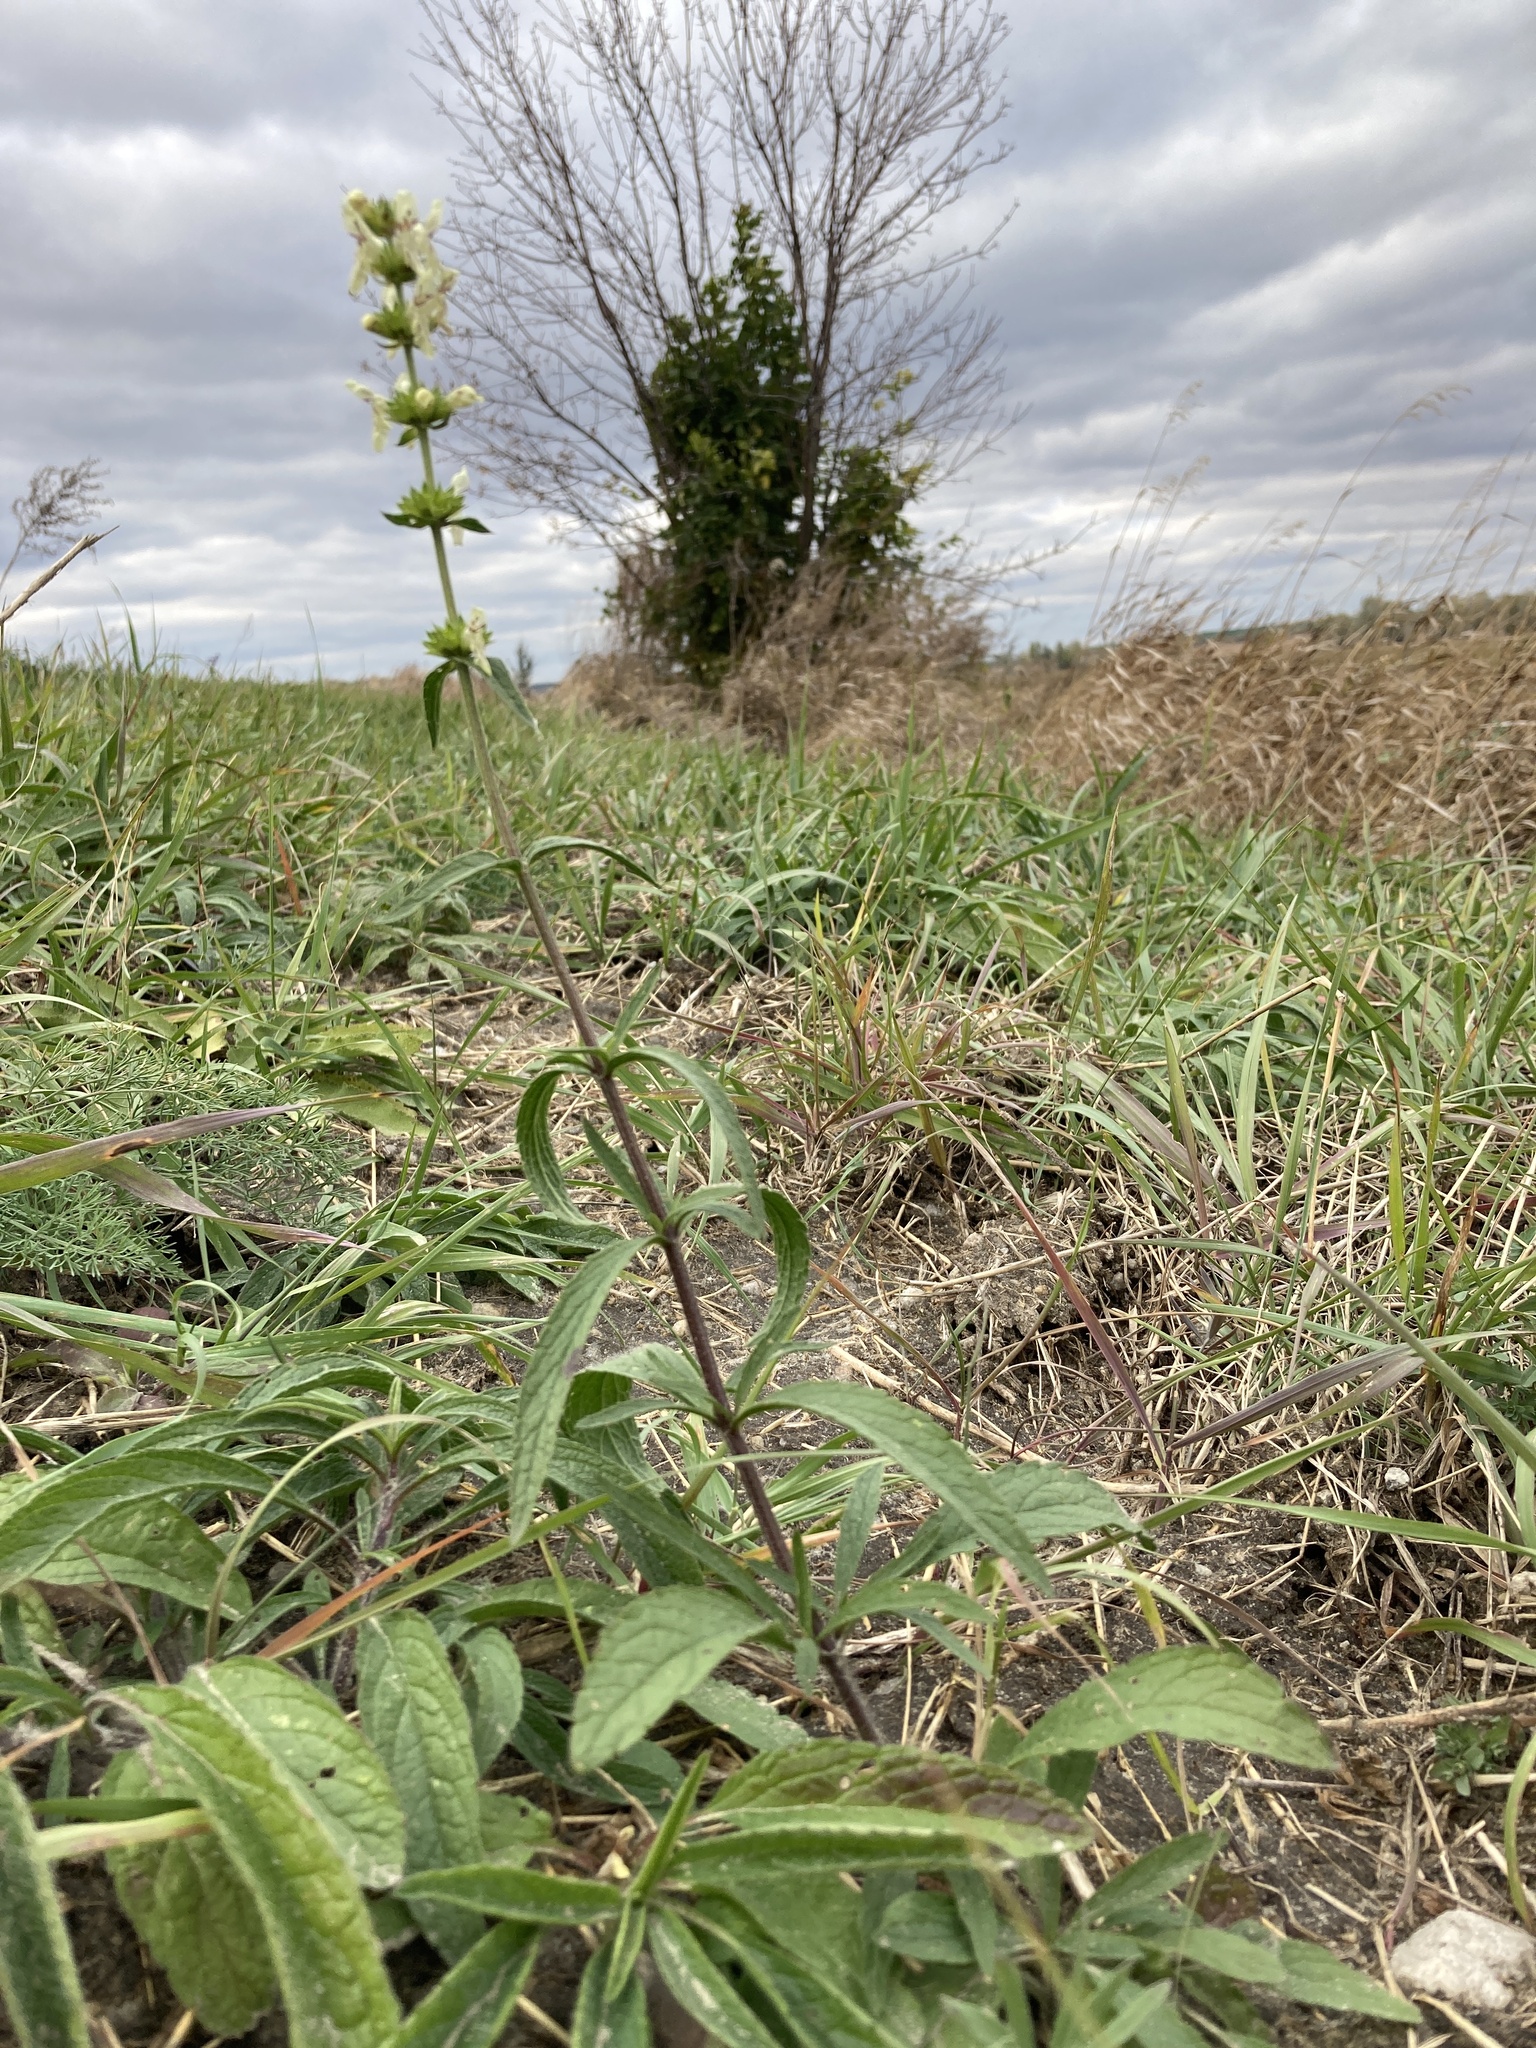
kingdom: Plantae
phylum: Tracheophyta
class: Magnoliopsida
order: Lamiales
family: Lamiaceae
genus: Stachys
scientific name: Stachys recta
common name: Perennial yellow-woundwort
